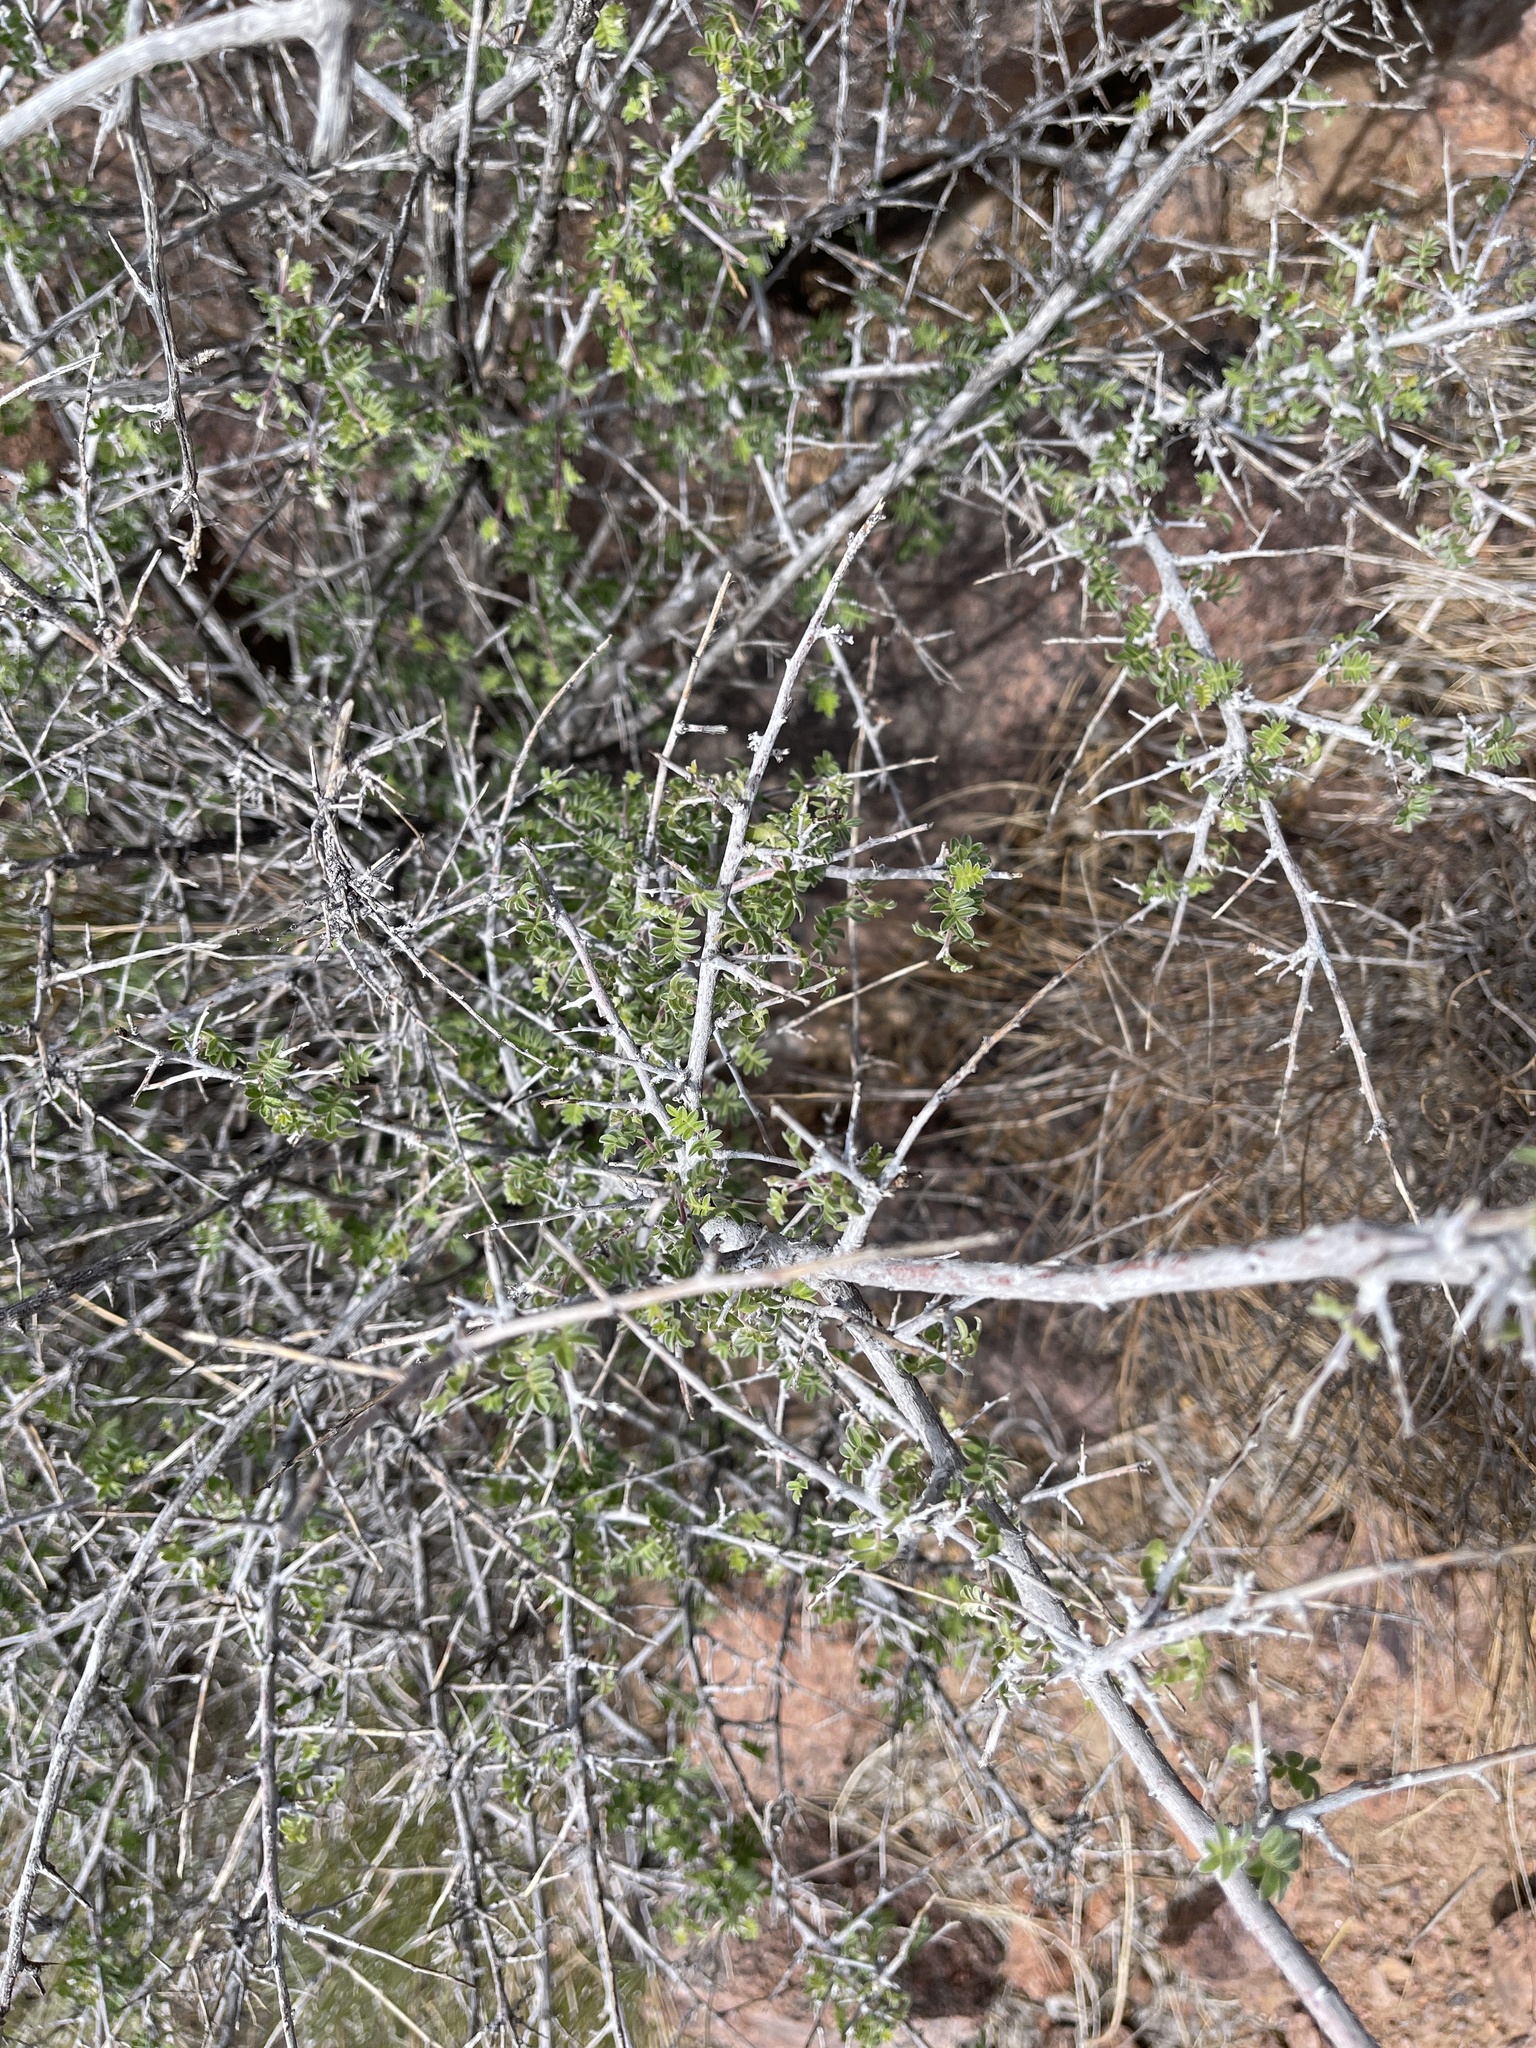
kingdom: Plantae
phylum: Tracheophyta
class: Magnoliopsida
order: Sapindales
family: Anacardiaceae
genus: Rhus
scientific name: Rhus microphylla
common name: Desert sumac
